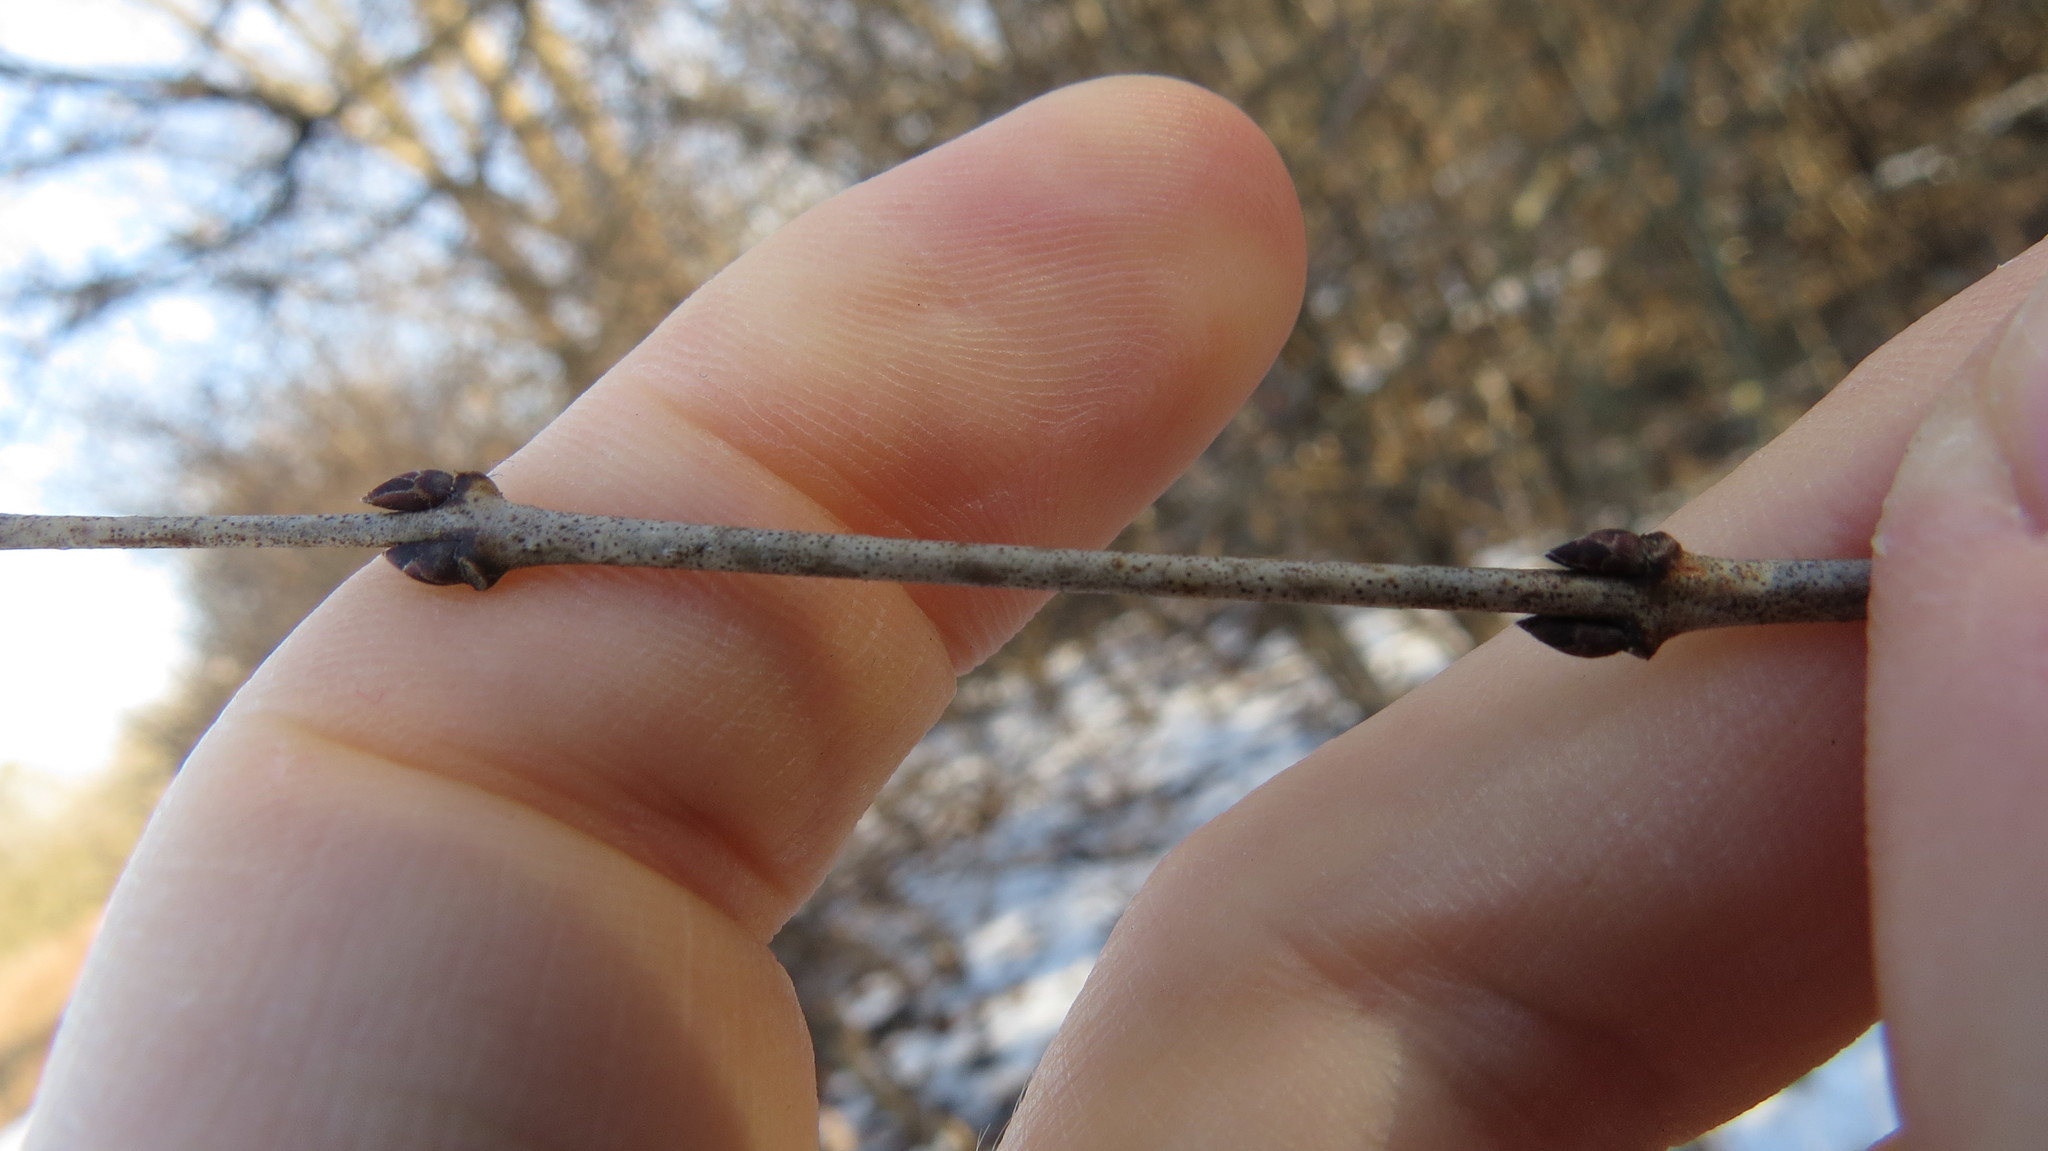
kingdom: Plantae
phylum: Tracheophyta
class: Magnoliopsida
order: Rosales
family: Rhamnaceae
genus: Rhamnus
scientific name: Rhamnus cathartica
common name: Common buckthorn
